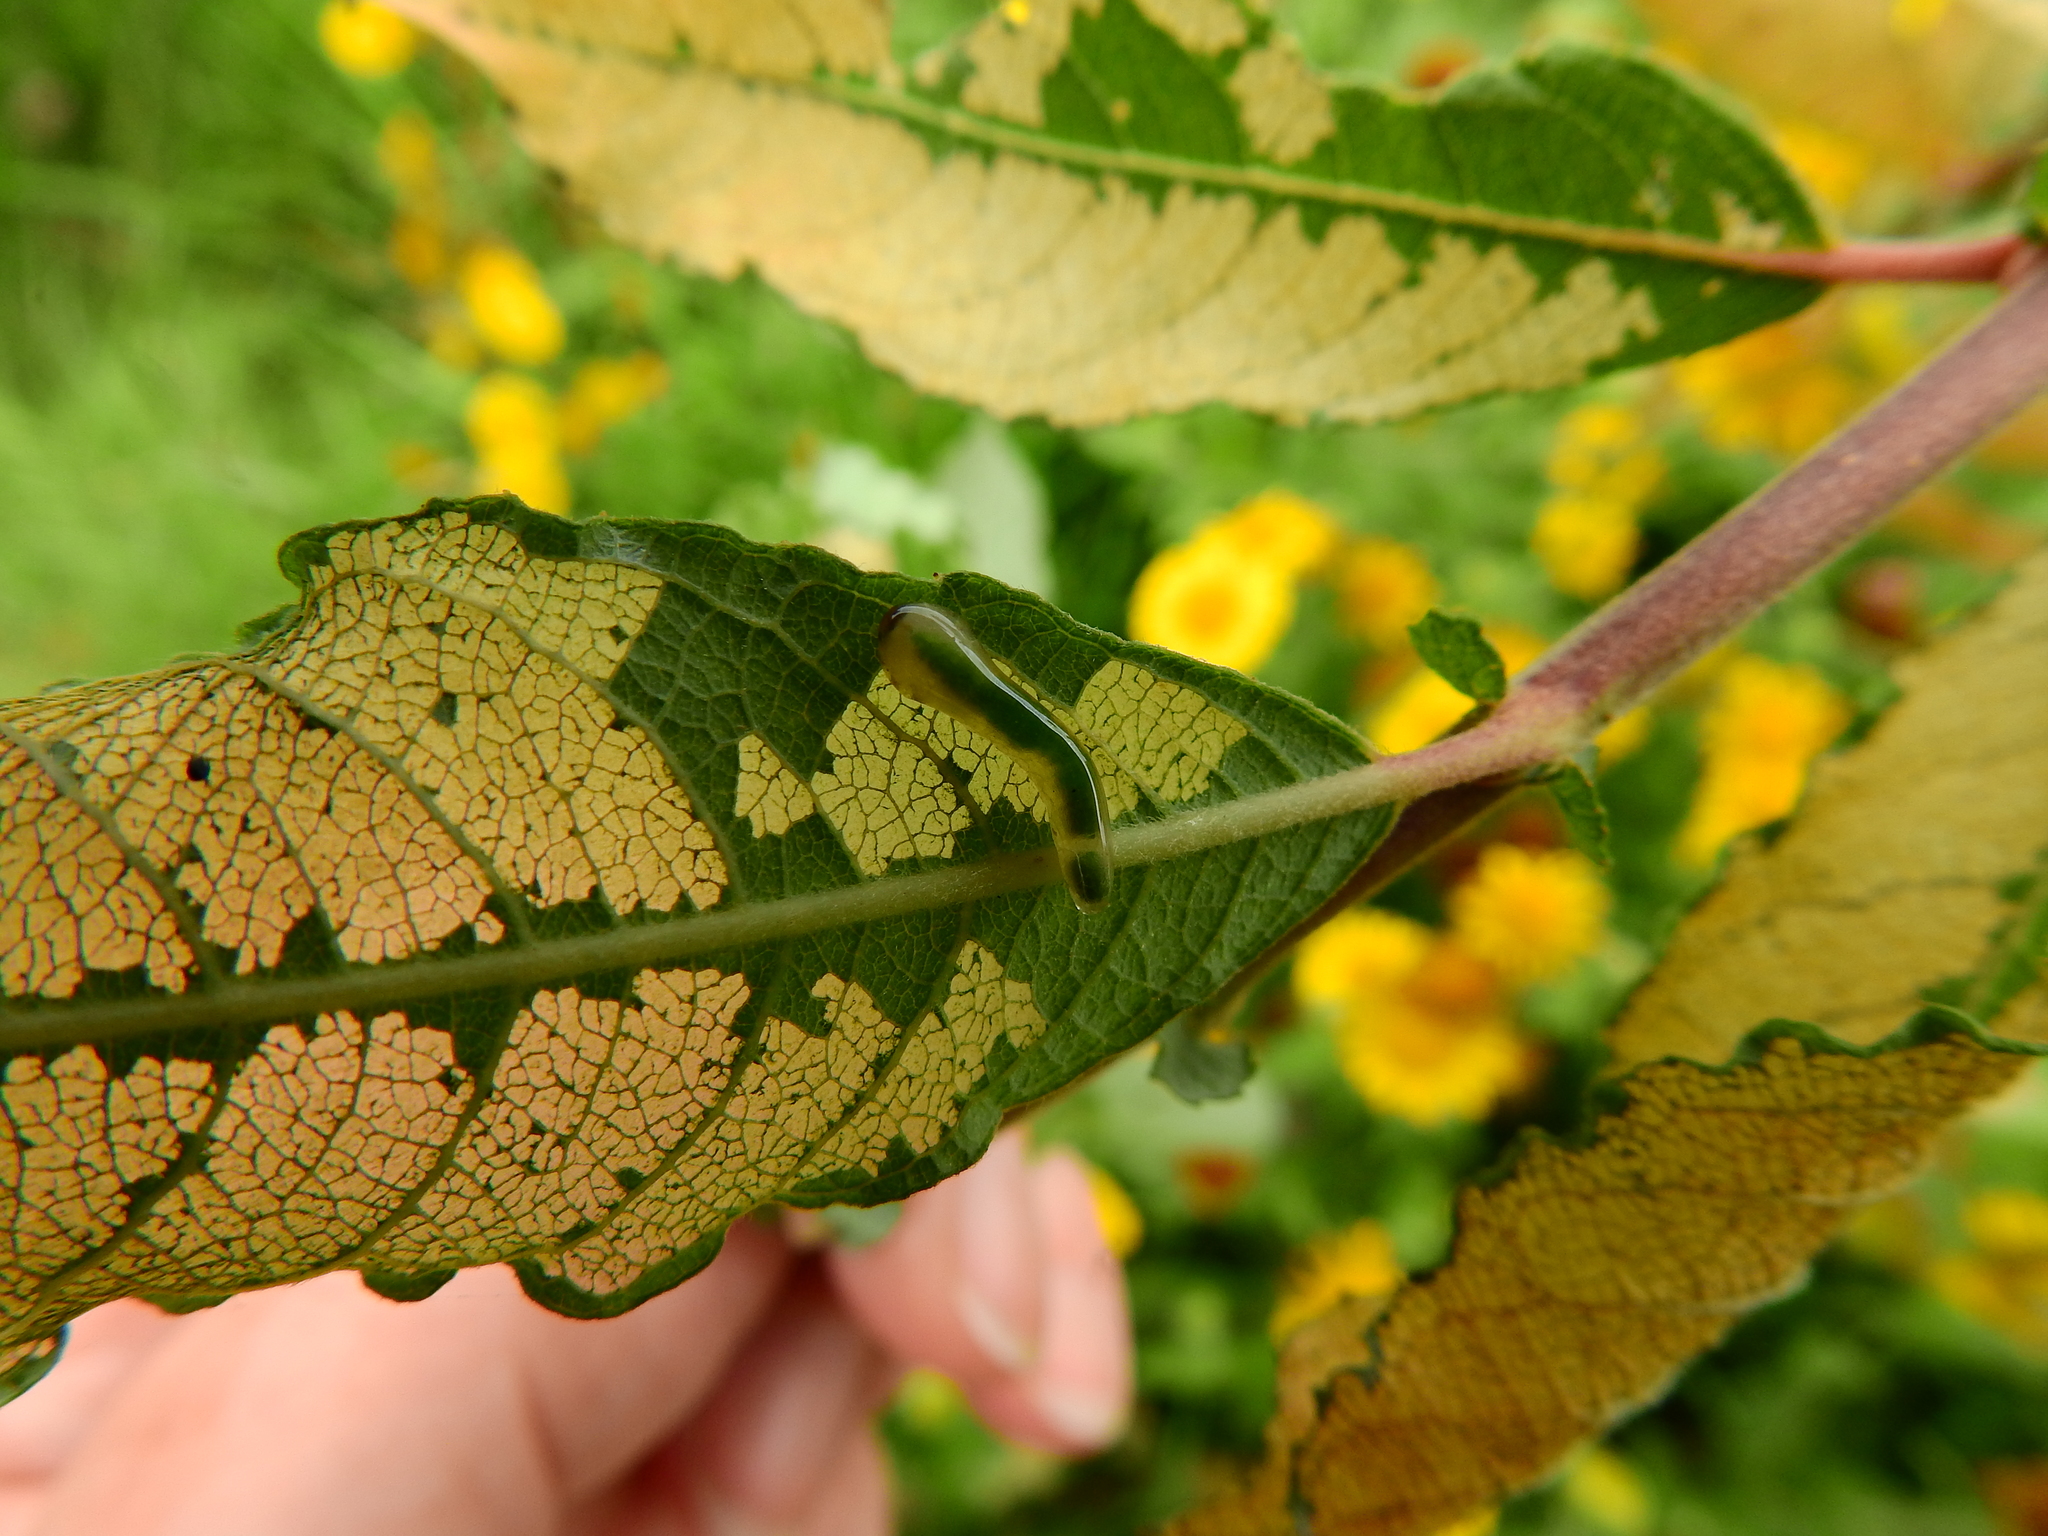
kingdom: Animalia
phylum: Arthropoda
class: Insecta
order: Hymenoptera
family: Tenthredinidae
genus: Caliroa
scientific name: Caliroa annulipes
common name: Wasp
